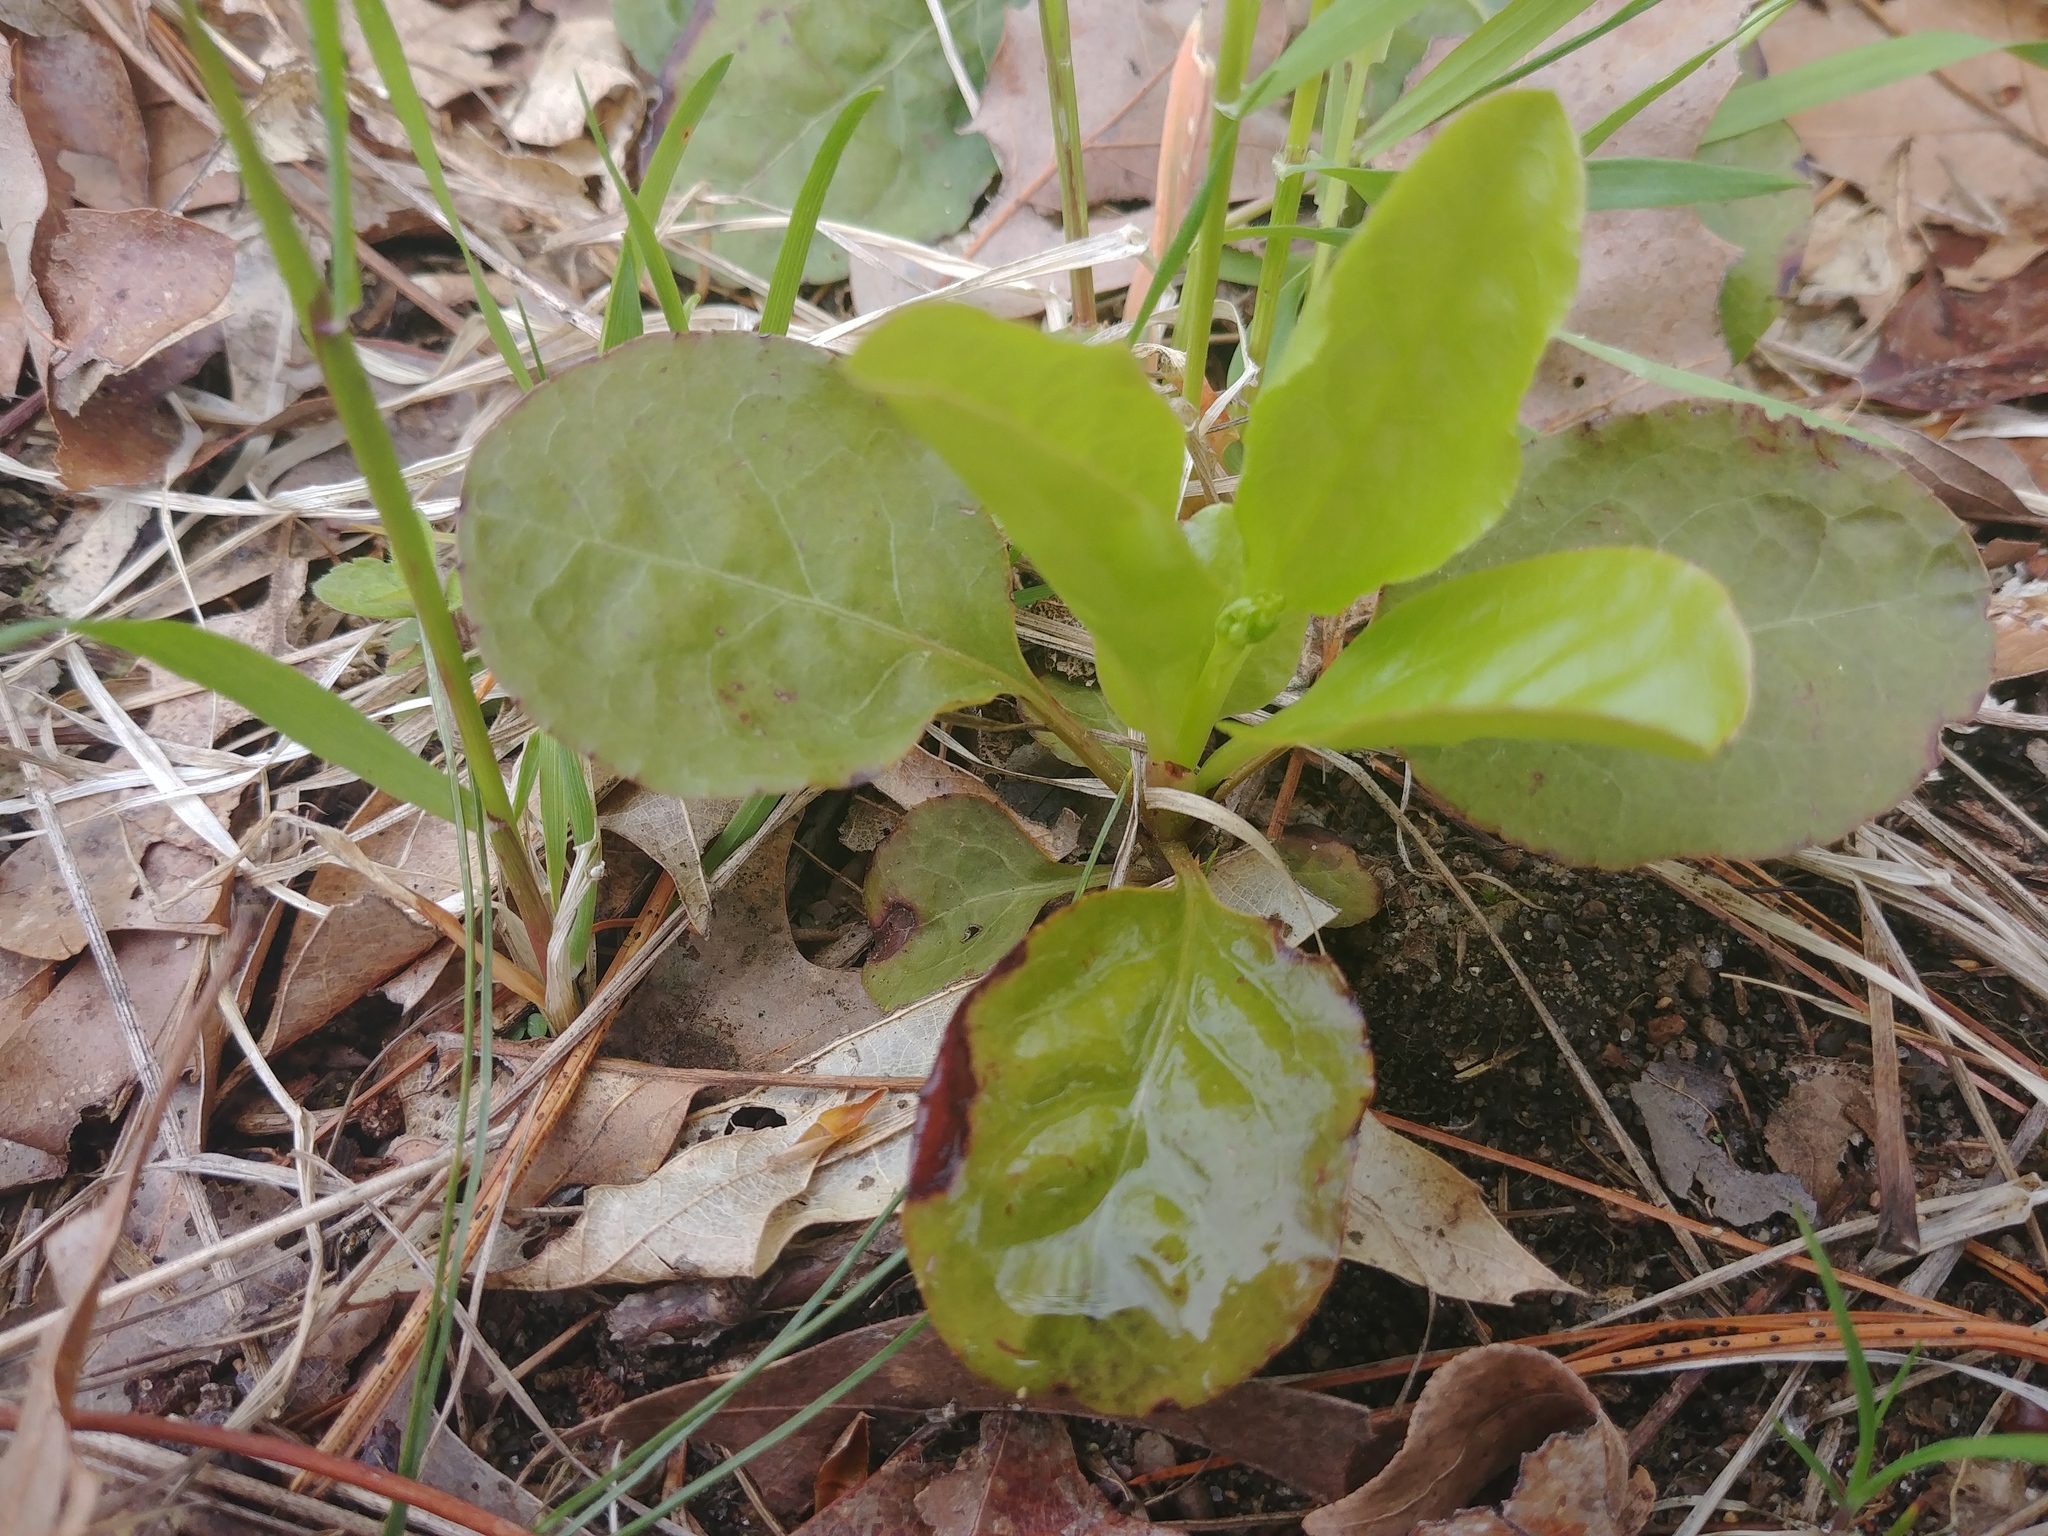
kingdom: Plantae
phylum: Tracheophyta
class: Magnoliopsida
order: Ericales
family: Ericaceae
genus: Pyrola
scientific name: Pyrola elliptica
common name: Shinleaf
